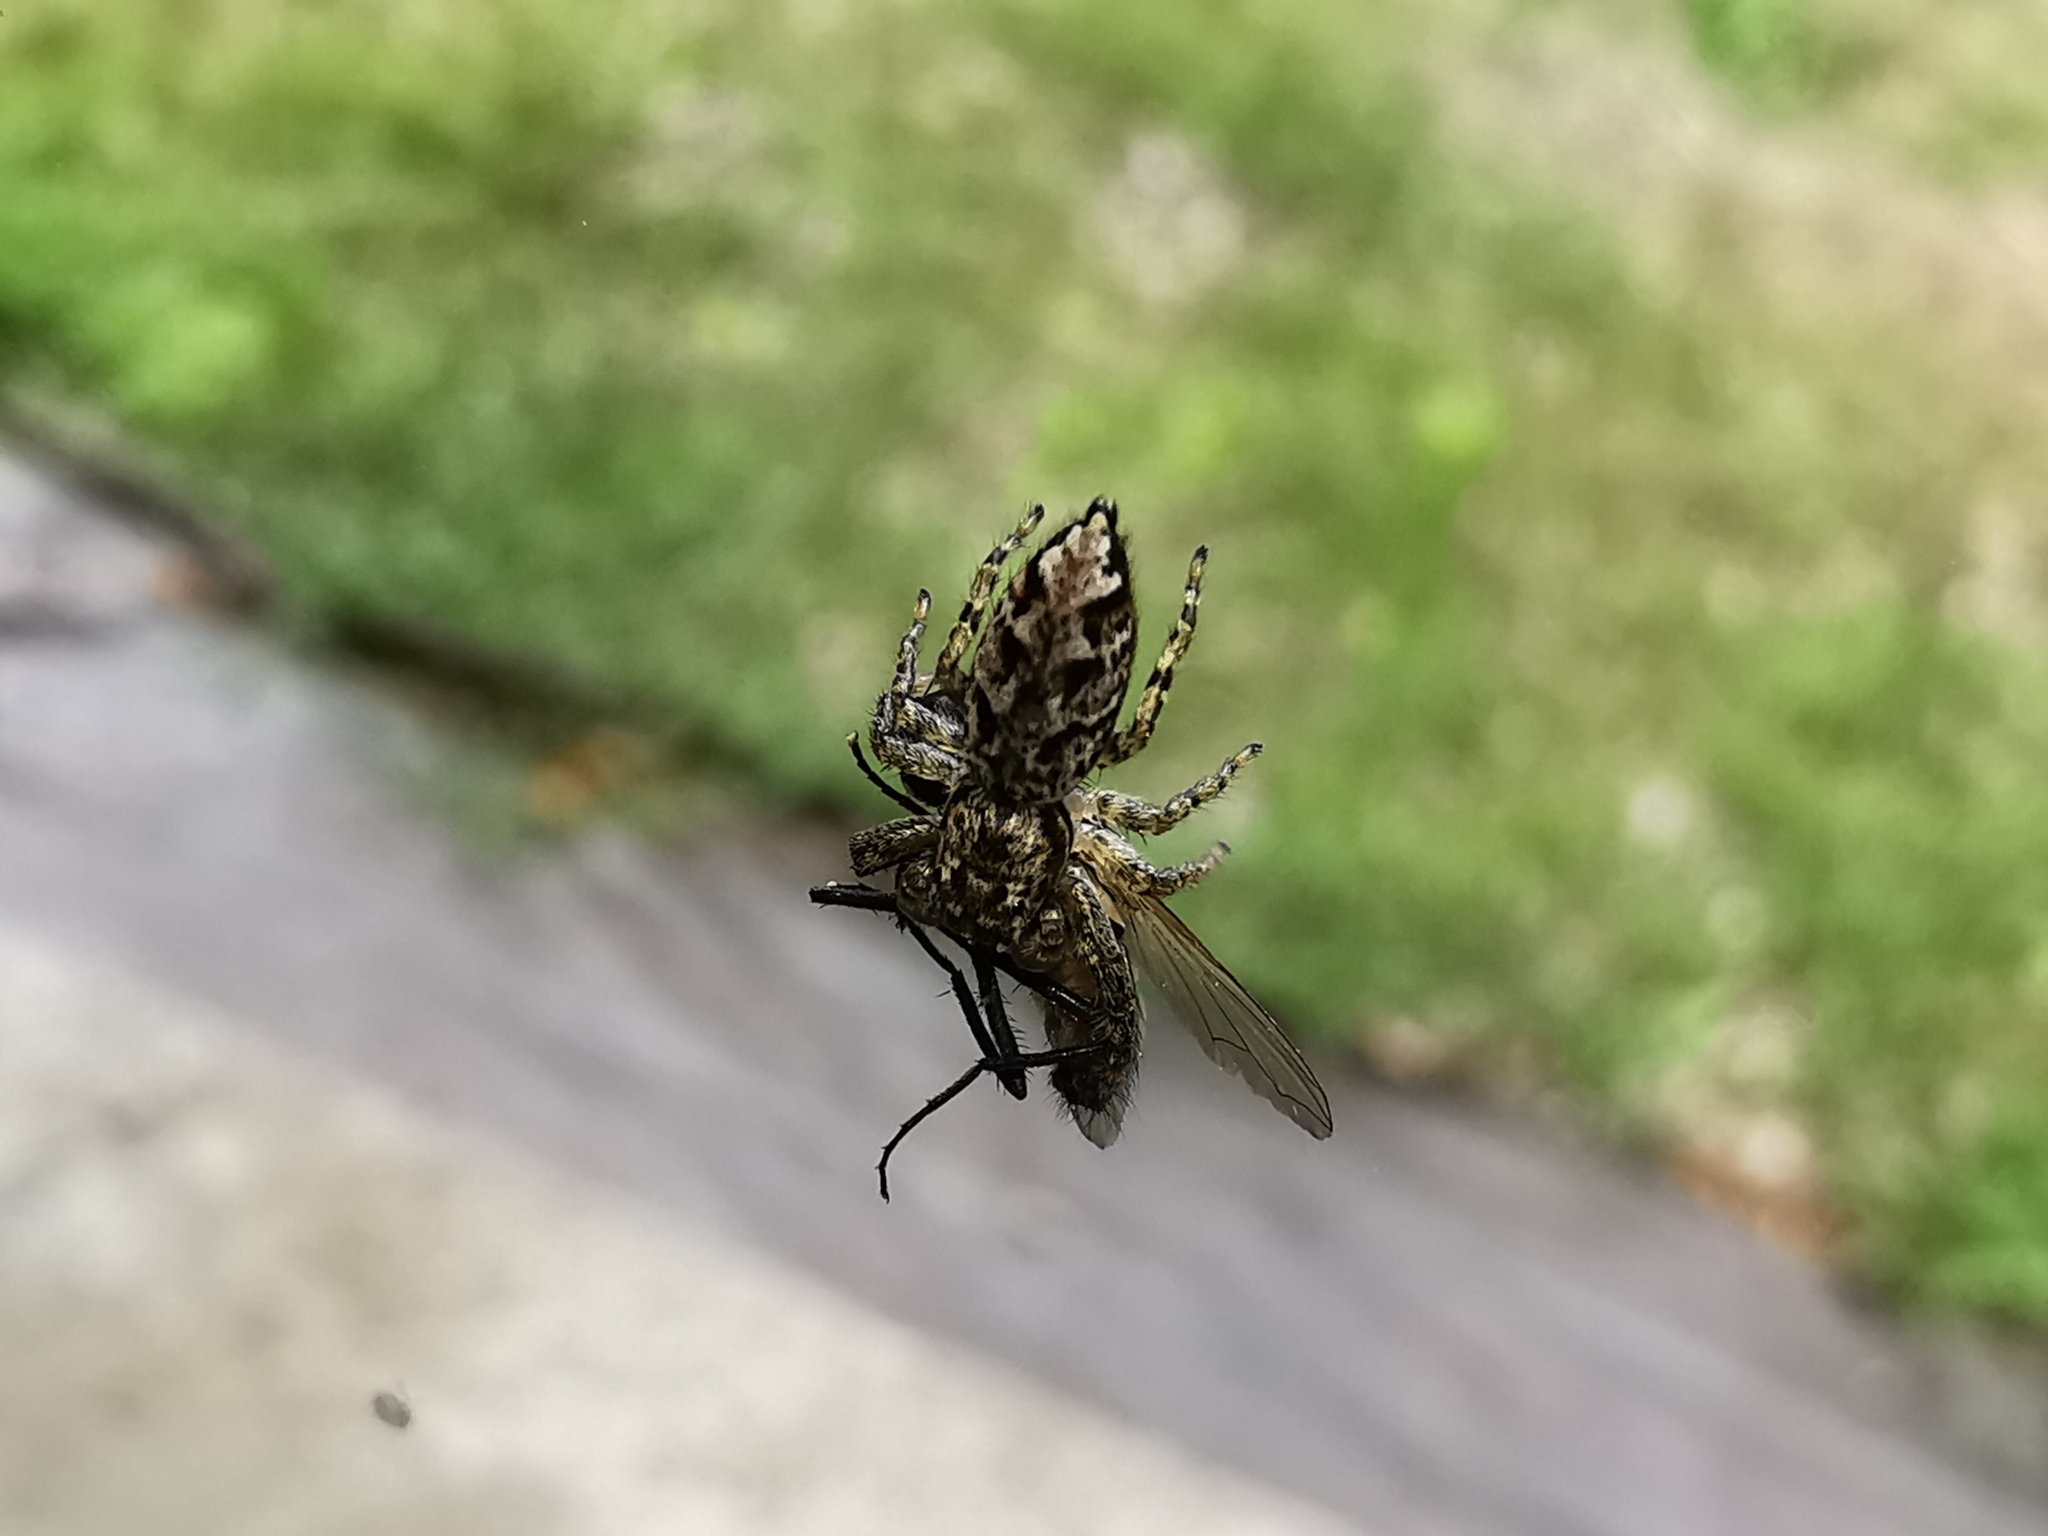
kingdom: Animalia
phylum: Arthropoda
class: Arachnida
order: Araneae
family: Salticidae
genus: Marpissa
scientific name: Marpissa muscosa
